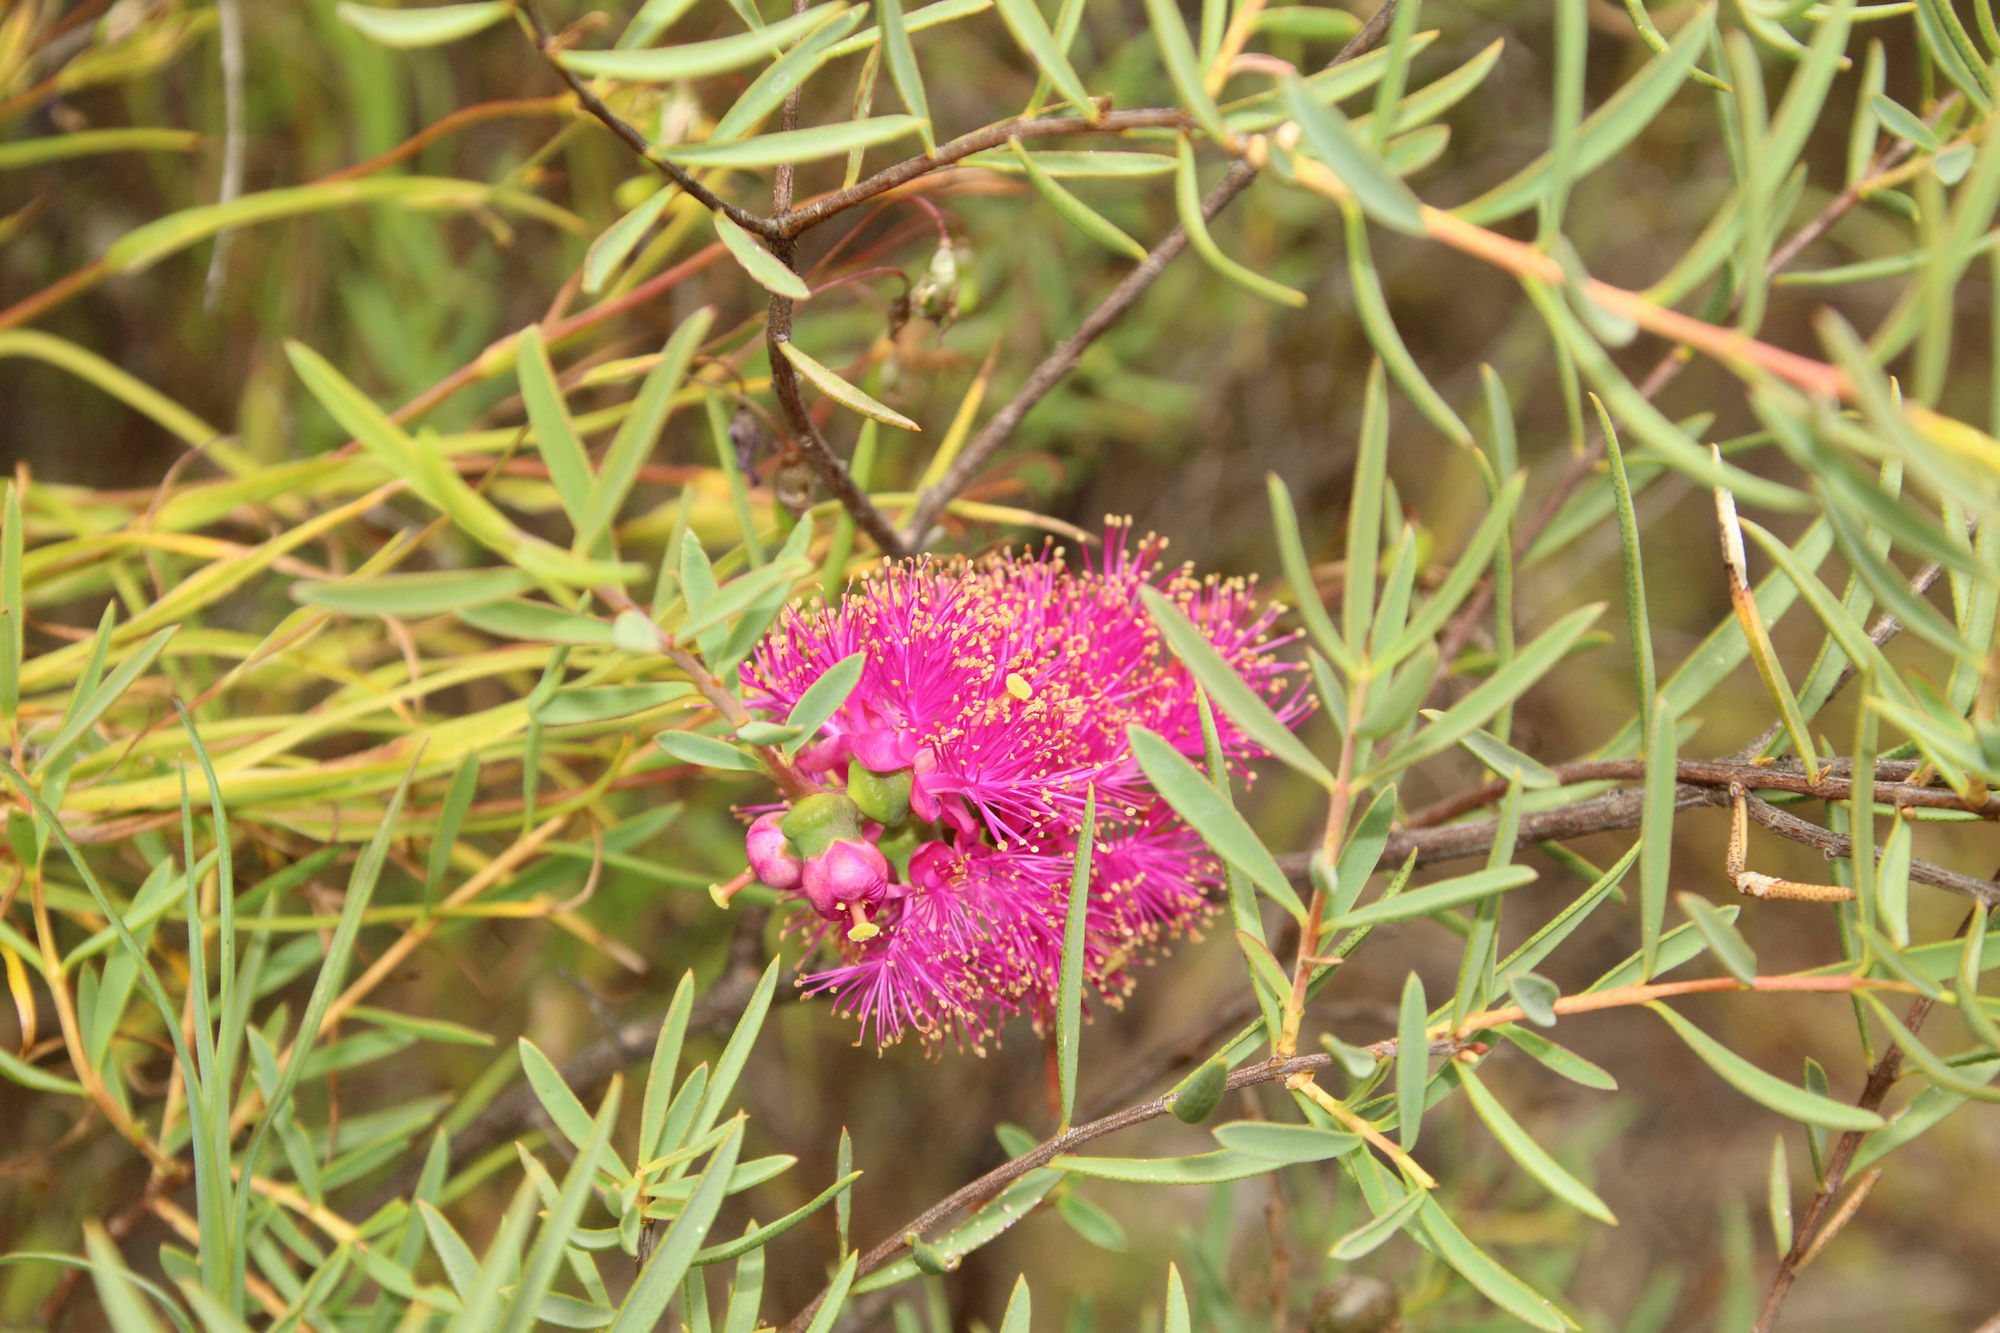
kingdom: Plantae
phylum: Tracheophyta
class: Magnoliopsida
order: Myrtales
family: Myrtaceae
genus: Melaleuca
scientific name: Melaleuca radula
